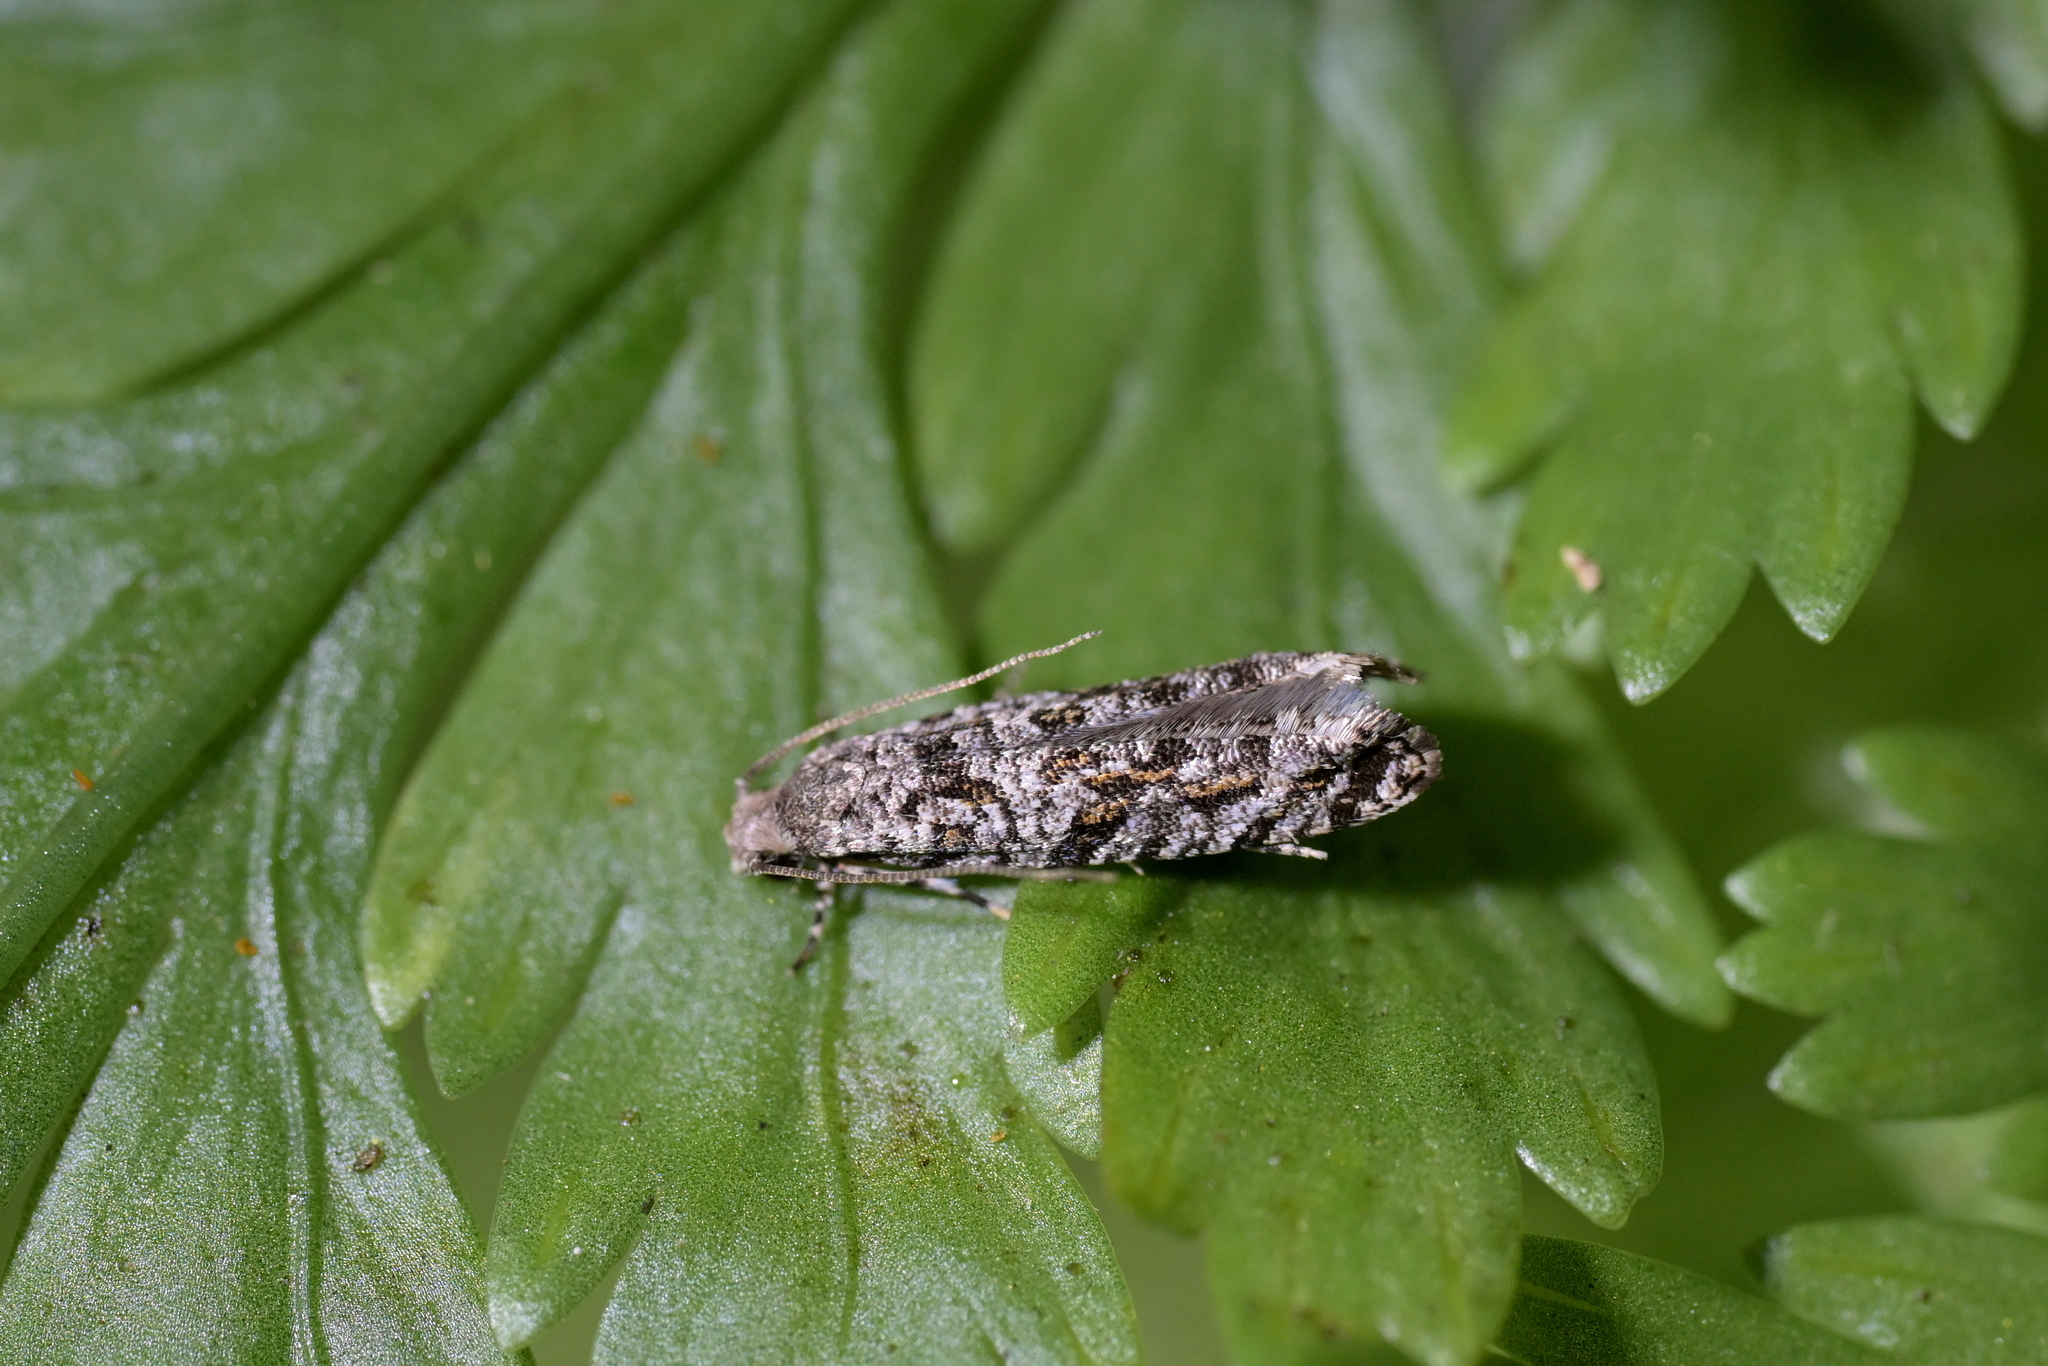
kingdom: Animalia
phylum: Arthropoda
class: Insecta
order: Lepidoptera
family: Tineidae
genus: Archyala
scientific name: Archyala paraglypta
